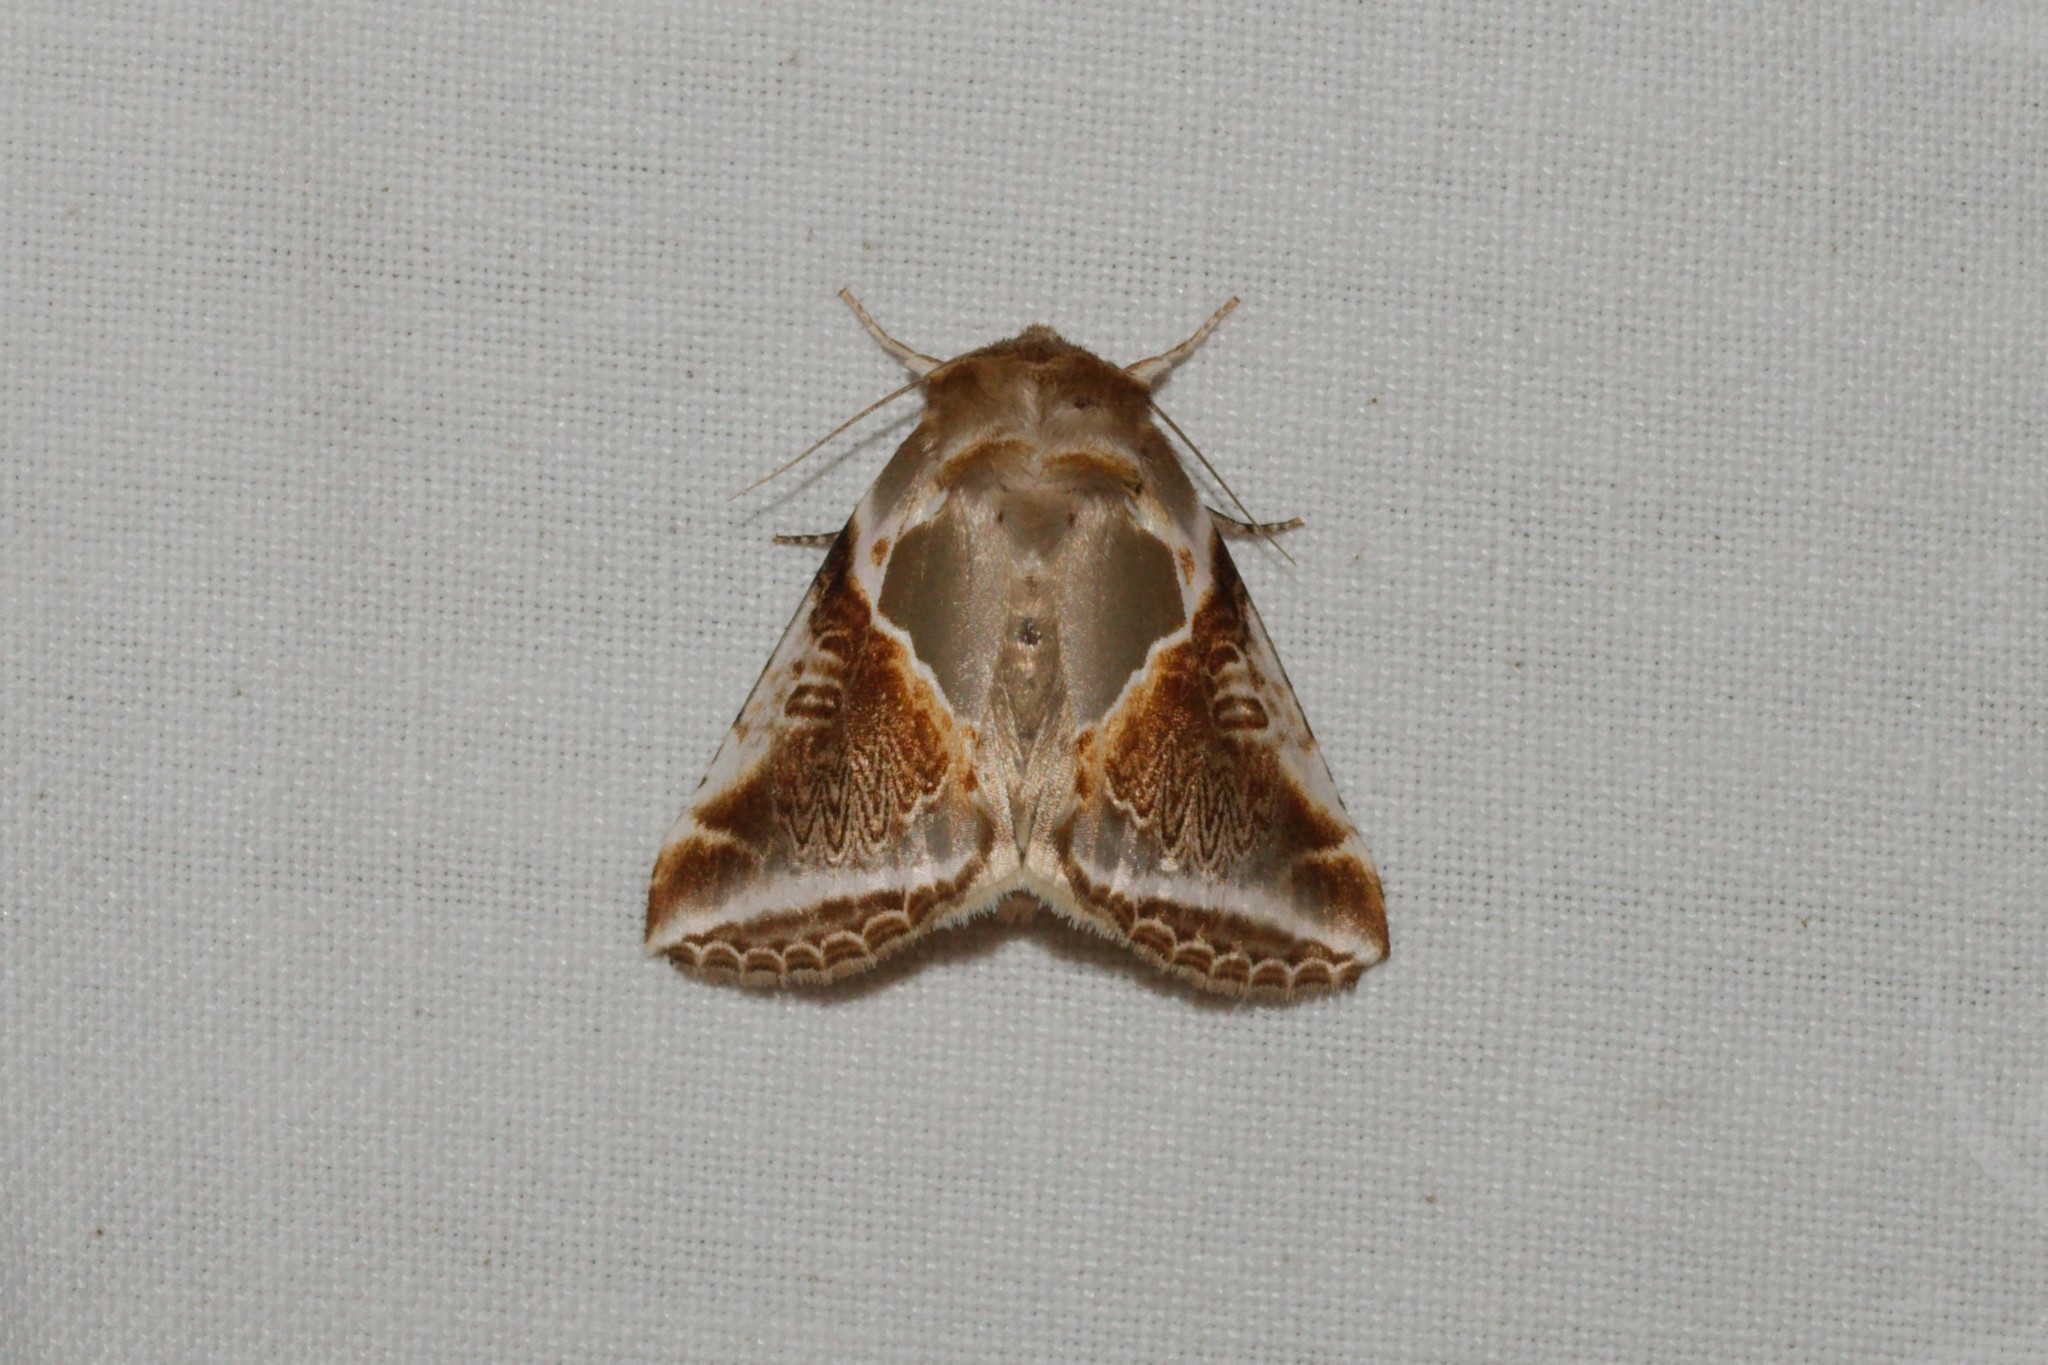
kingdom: Animalia
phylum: Arthropoda
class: Insecta
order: Lepidoptera
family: Drepanidae
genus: Habrosyne
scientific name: Habrosyne pyritoides
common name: Buff arches
